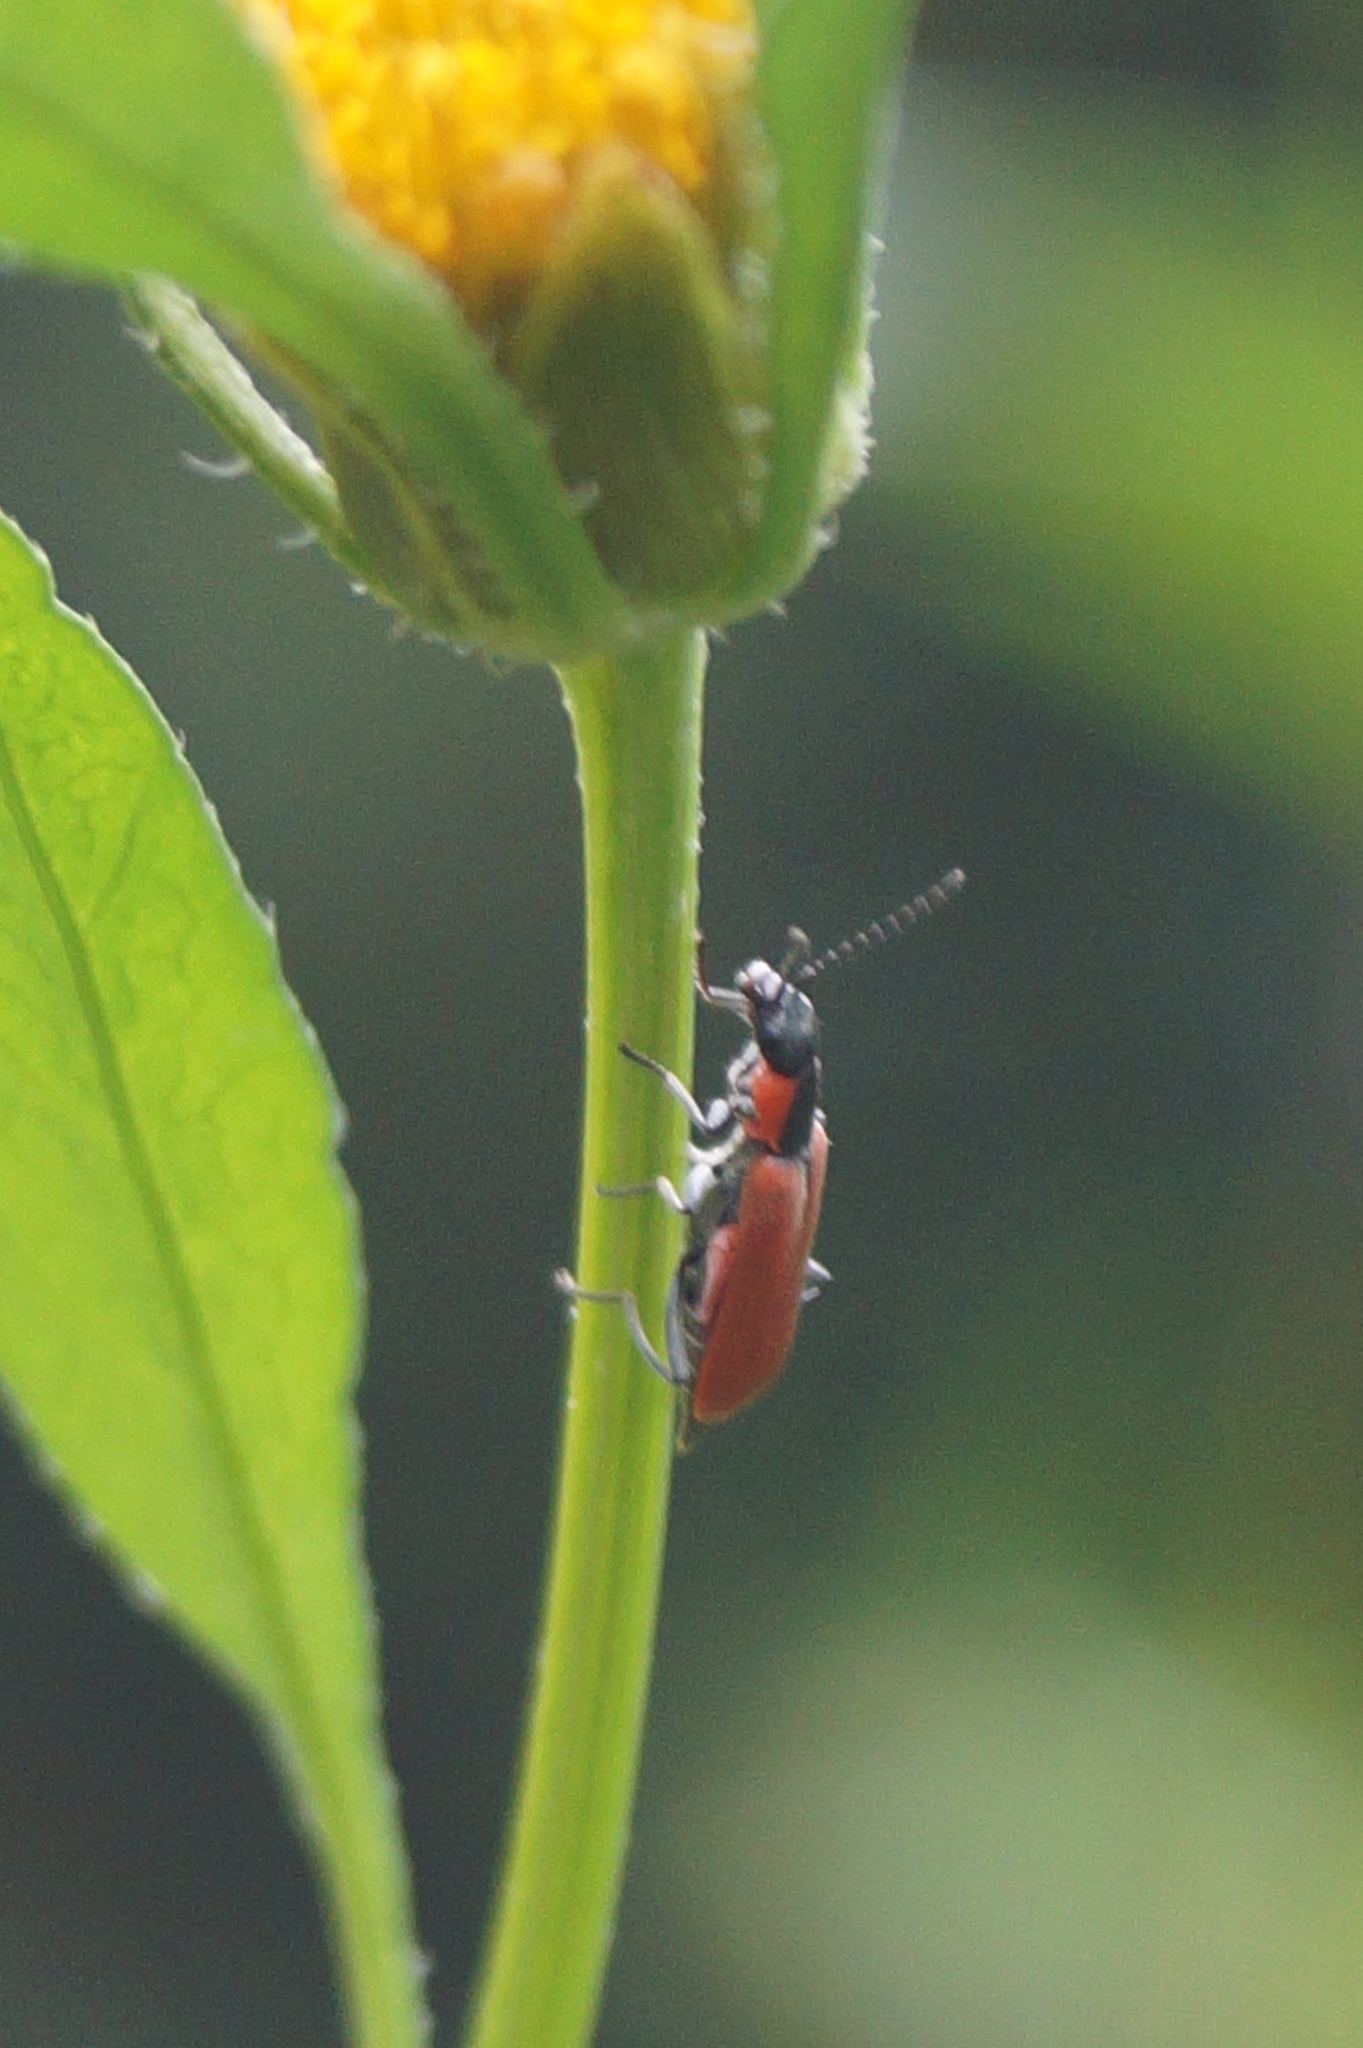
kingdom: Animalia
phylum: Arthropoda
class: Insecta
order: Coleoptera
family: Melyridae
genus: Anthocomus
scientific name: Anthocomus rufus
